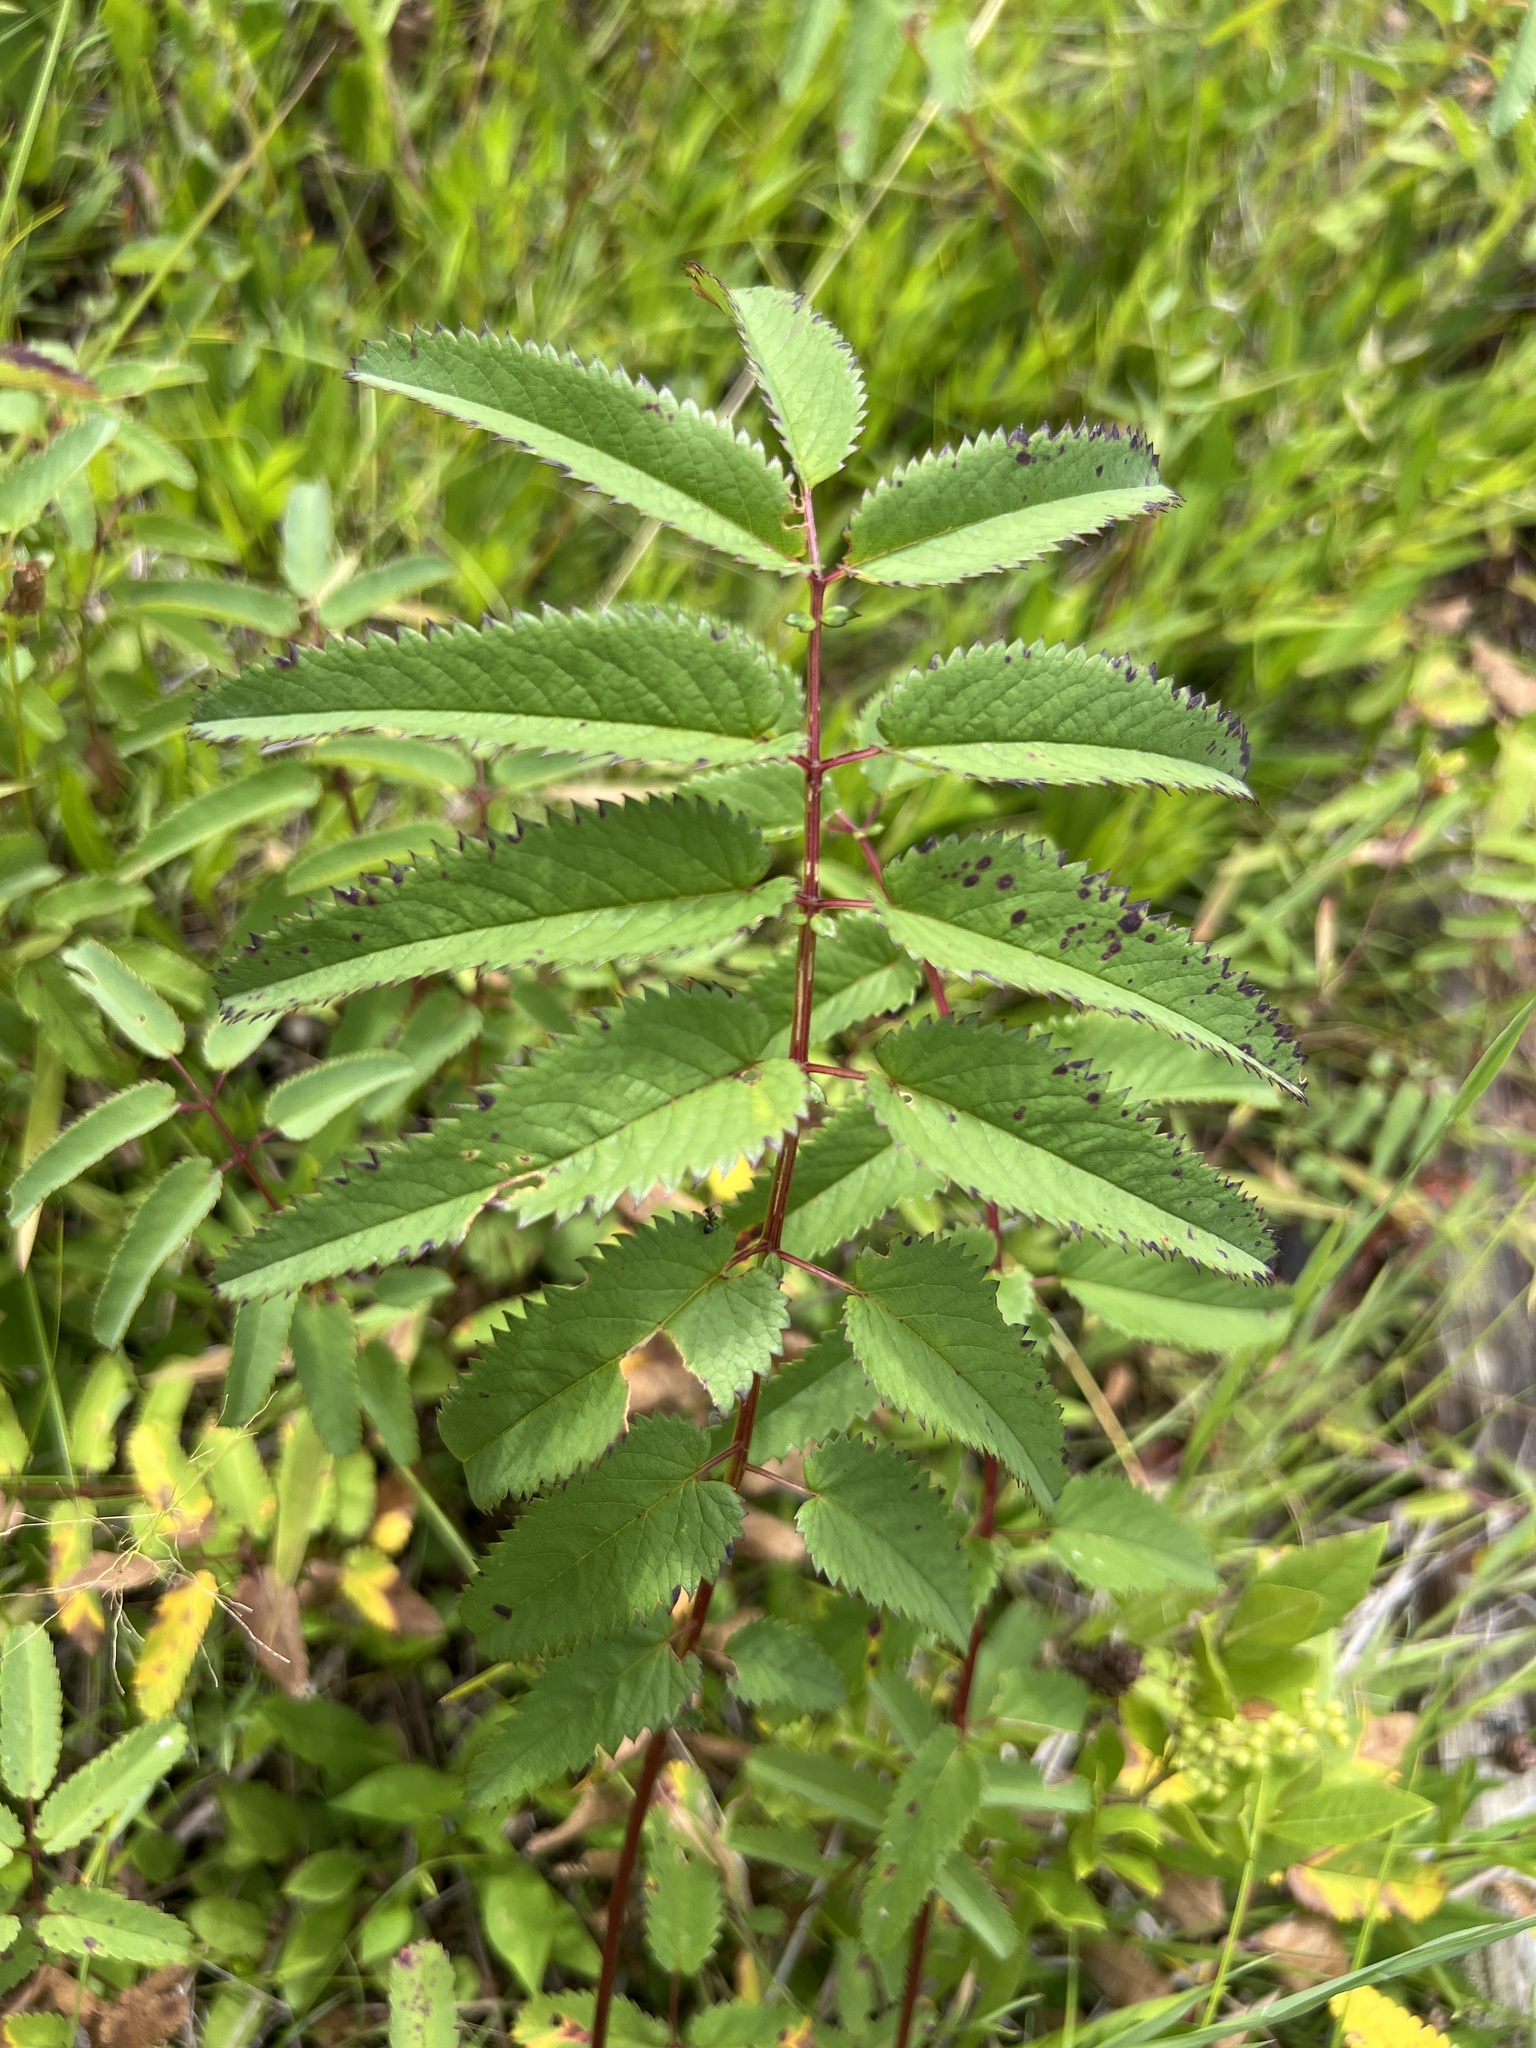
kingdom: Plantae
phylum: Tracheophyta
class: Magnoliopsida
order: Rosales
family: Rosaceae
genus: Sanguisorba
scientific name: Sanguisorba canadensis
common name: White burnet
